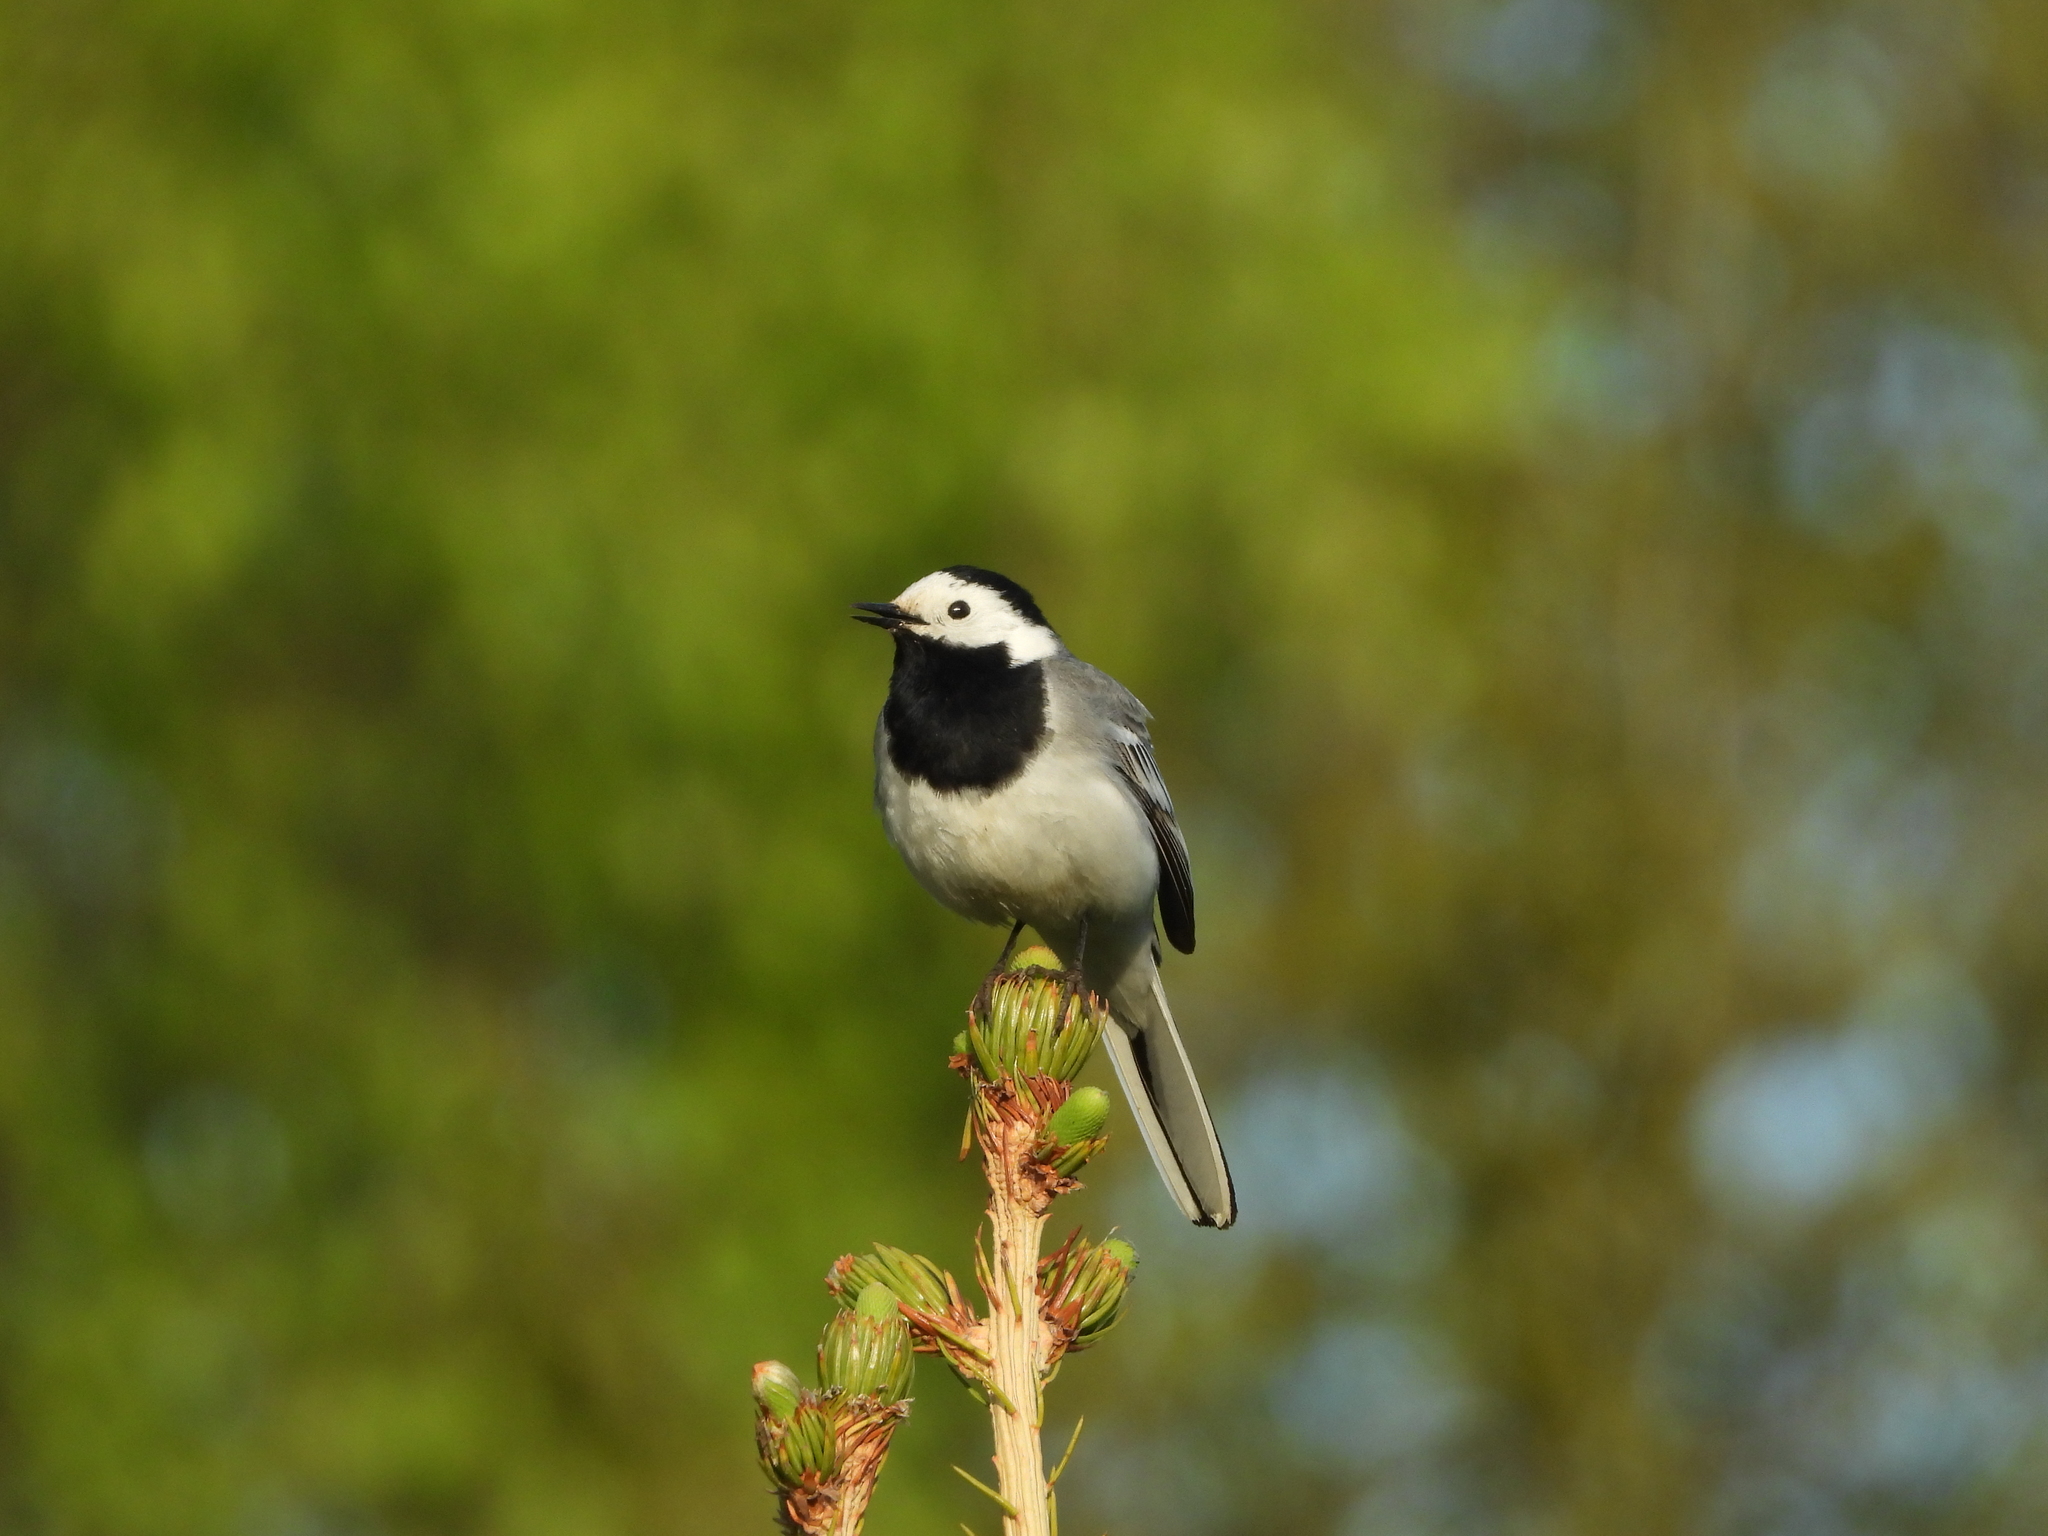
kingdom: Animalia
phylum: Chordata
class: Aves
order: Passeriformes
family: Motacillidae
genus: Motacilla
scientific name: Motacilla alba
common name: White wagtail
